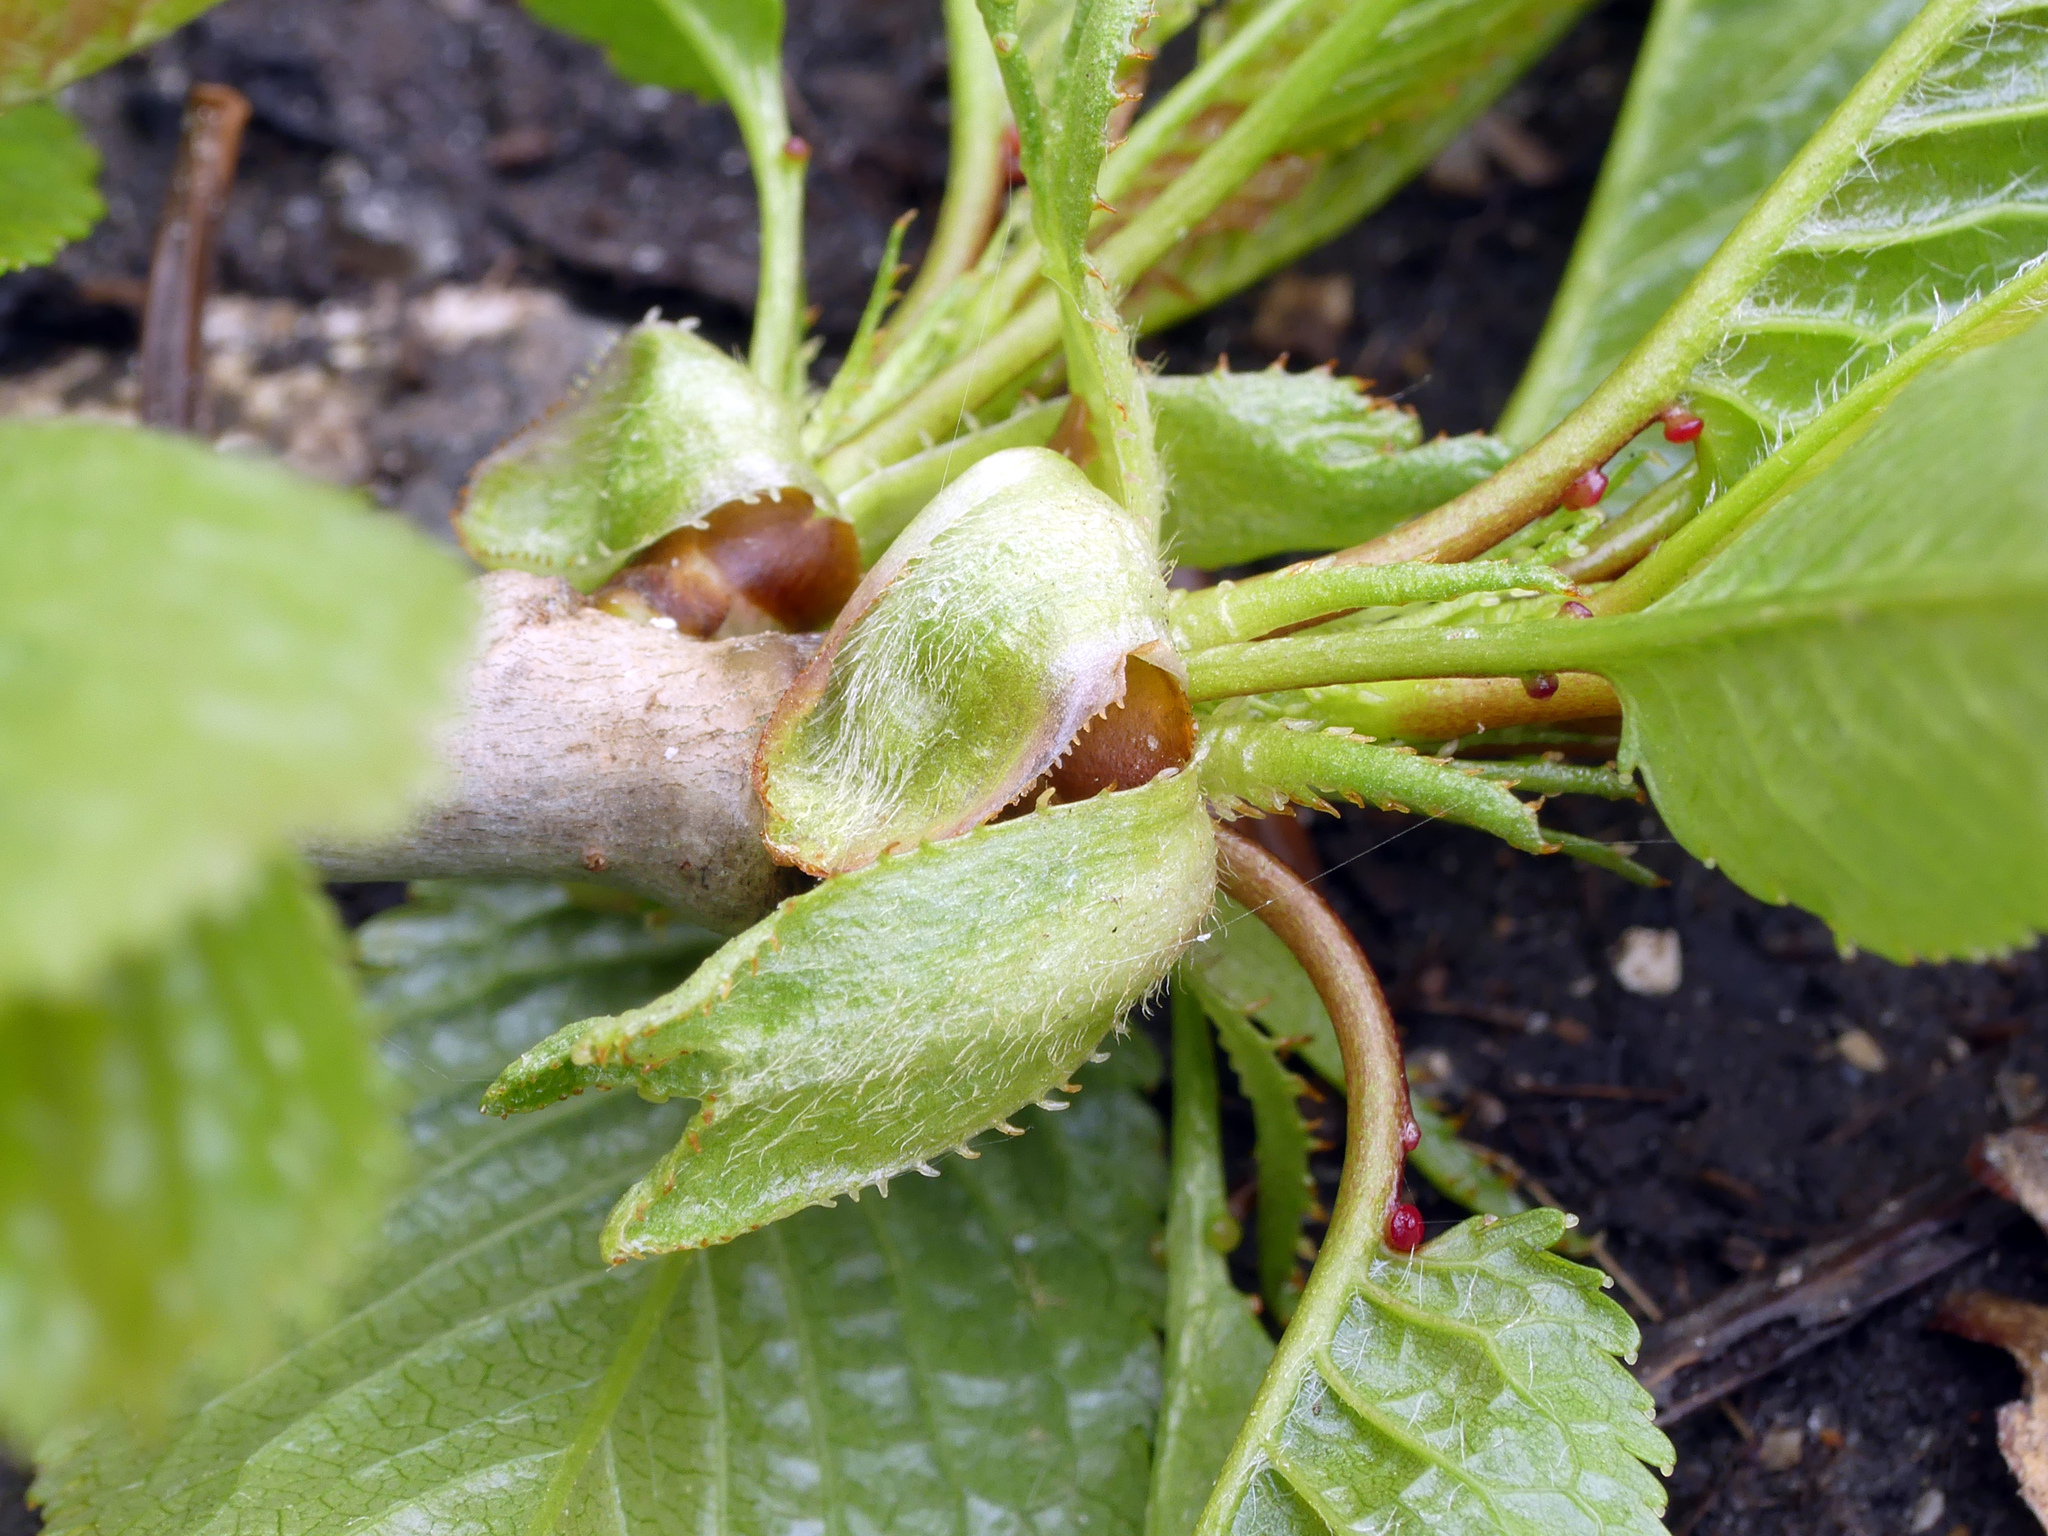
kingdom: Plantae
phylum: Tracheophyta
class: Magnoliopsida
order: Rosales
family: Rosaceae
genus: Prunus
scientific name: Prunus avium
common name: Sweet cherry
